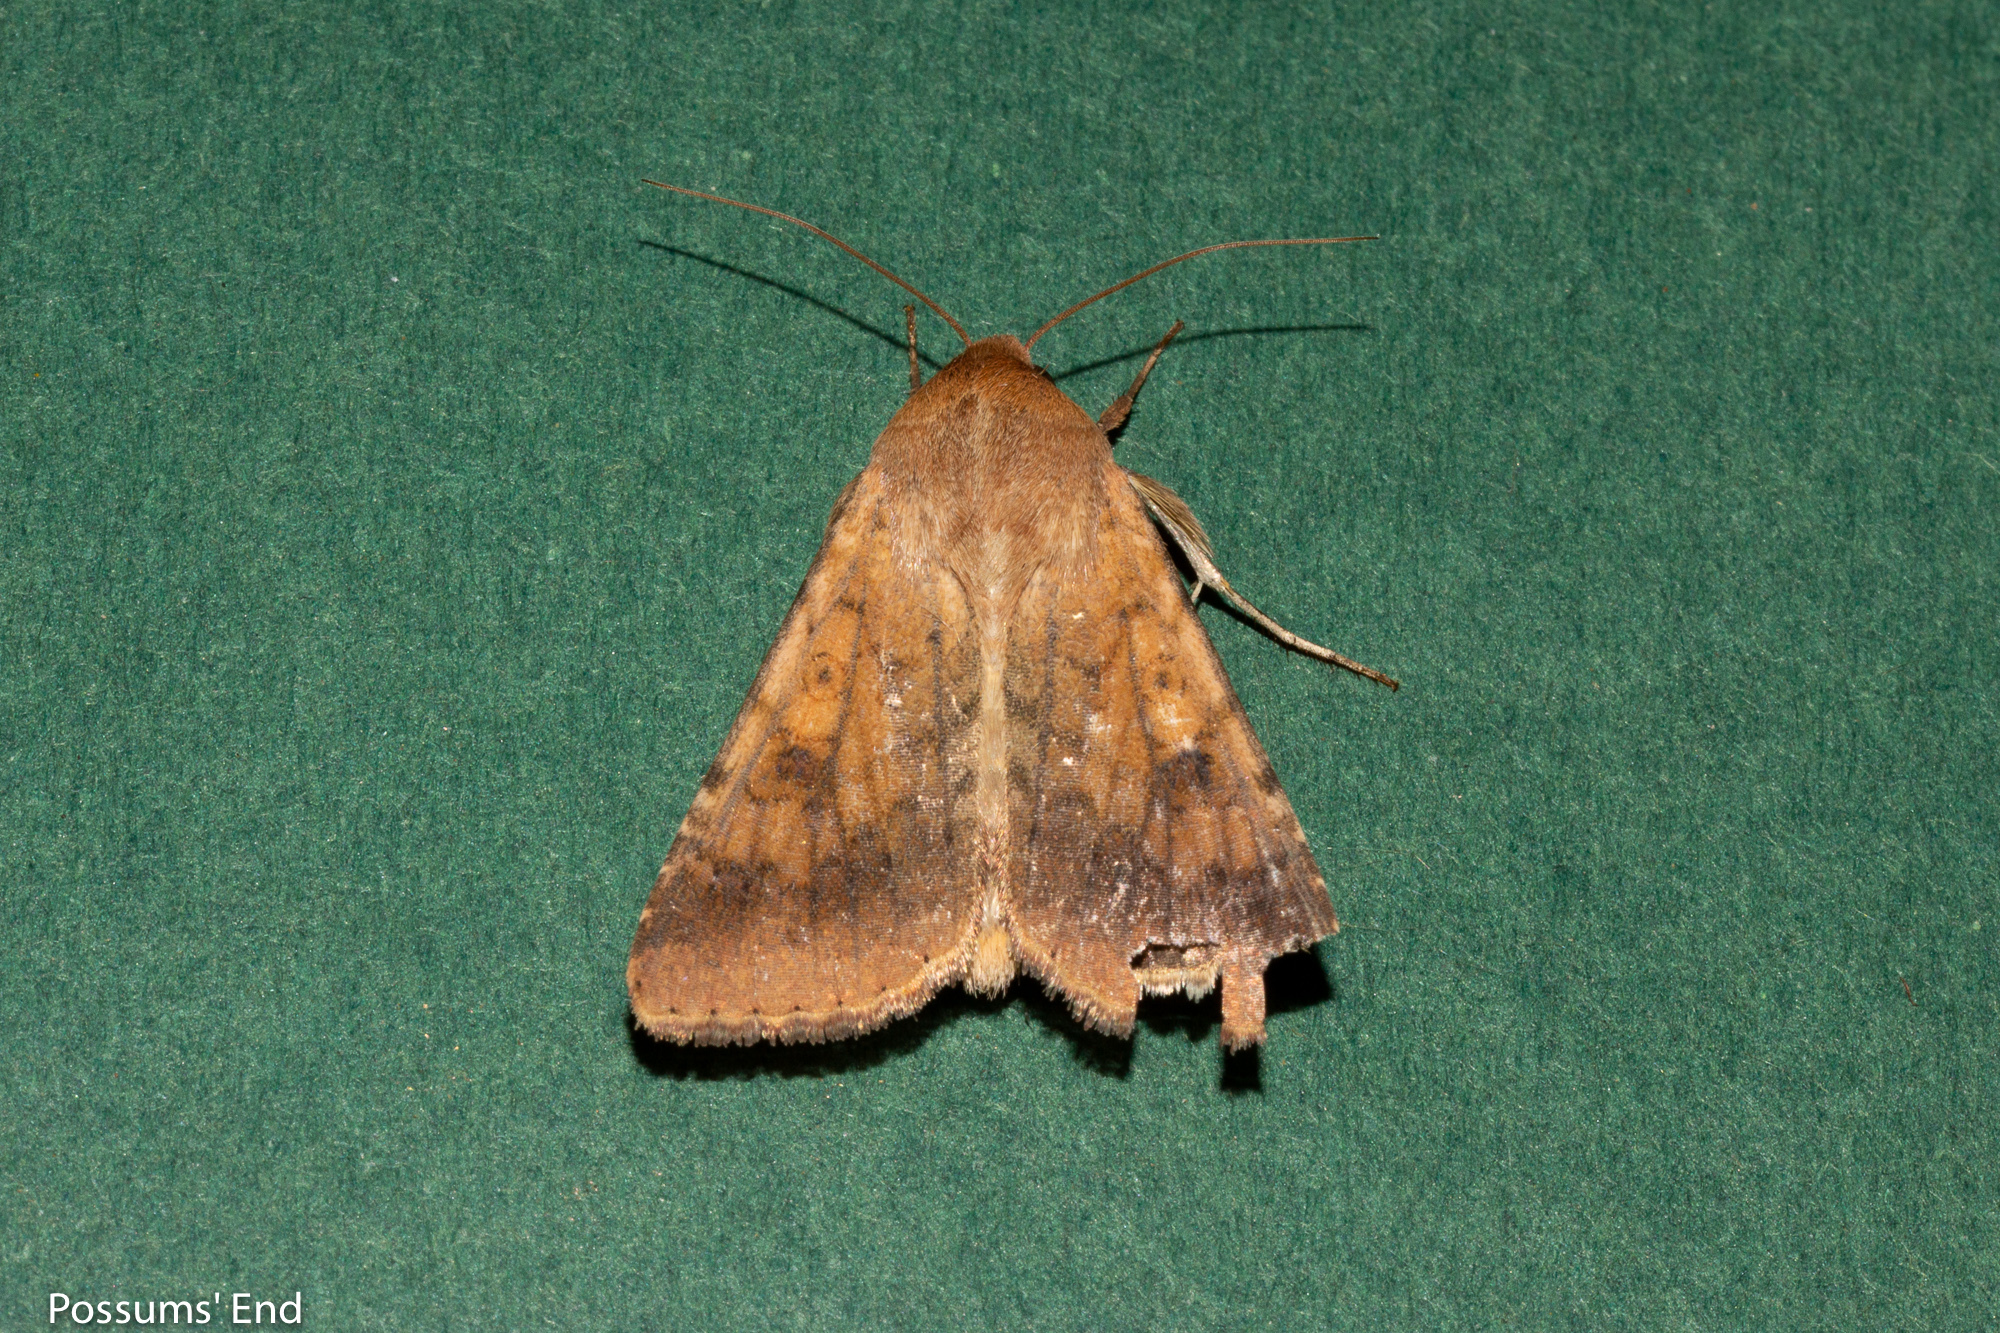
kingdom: Animalia
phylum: Arthropoda
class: Insecta
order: Lepidoptera
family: Noctuidae
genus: Helicoverpa
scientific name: Helicoverpa armigera
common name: Cotton bollworm
